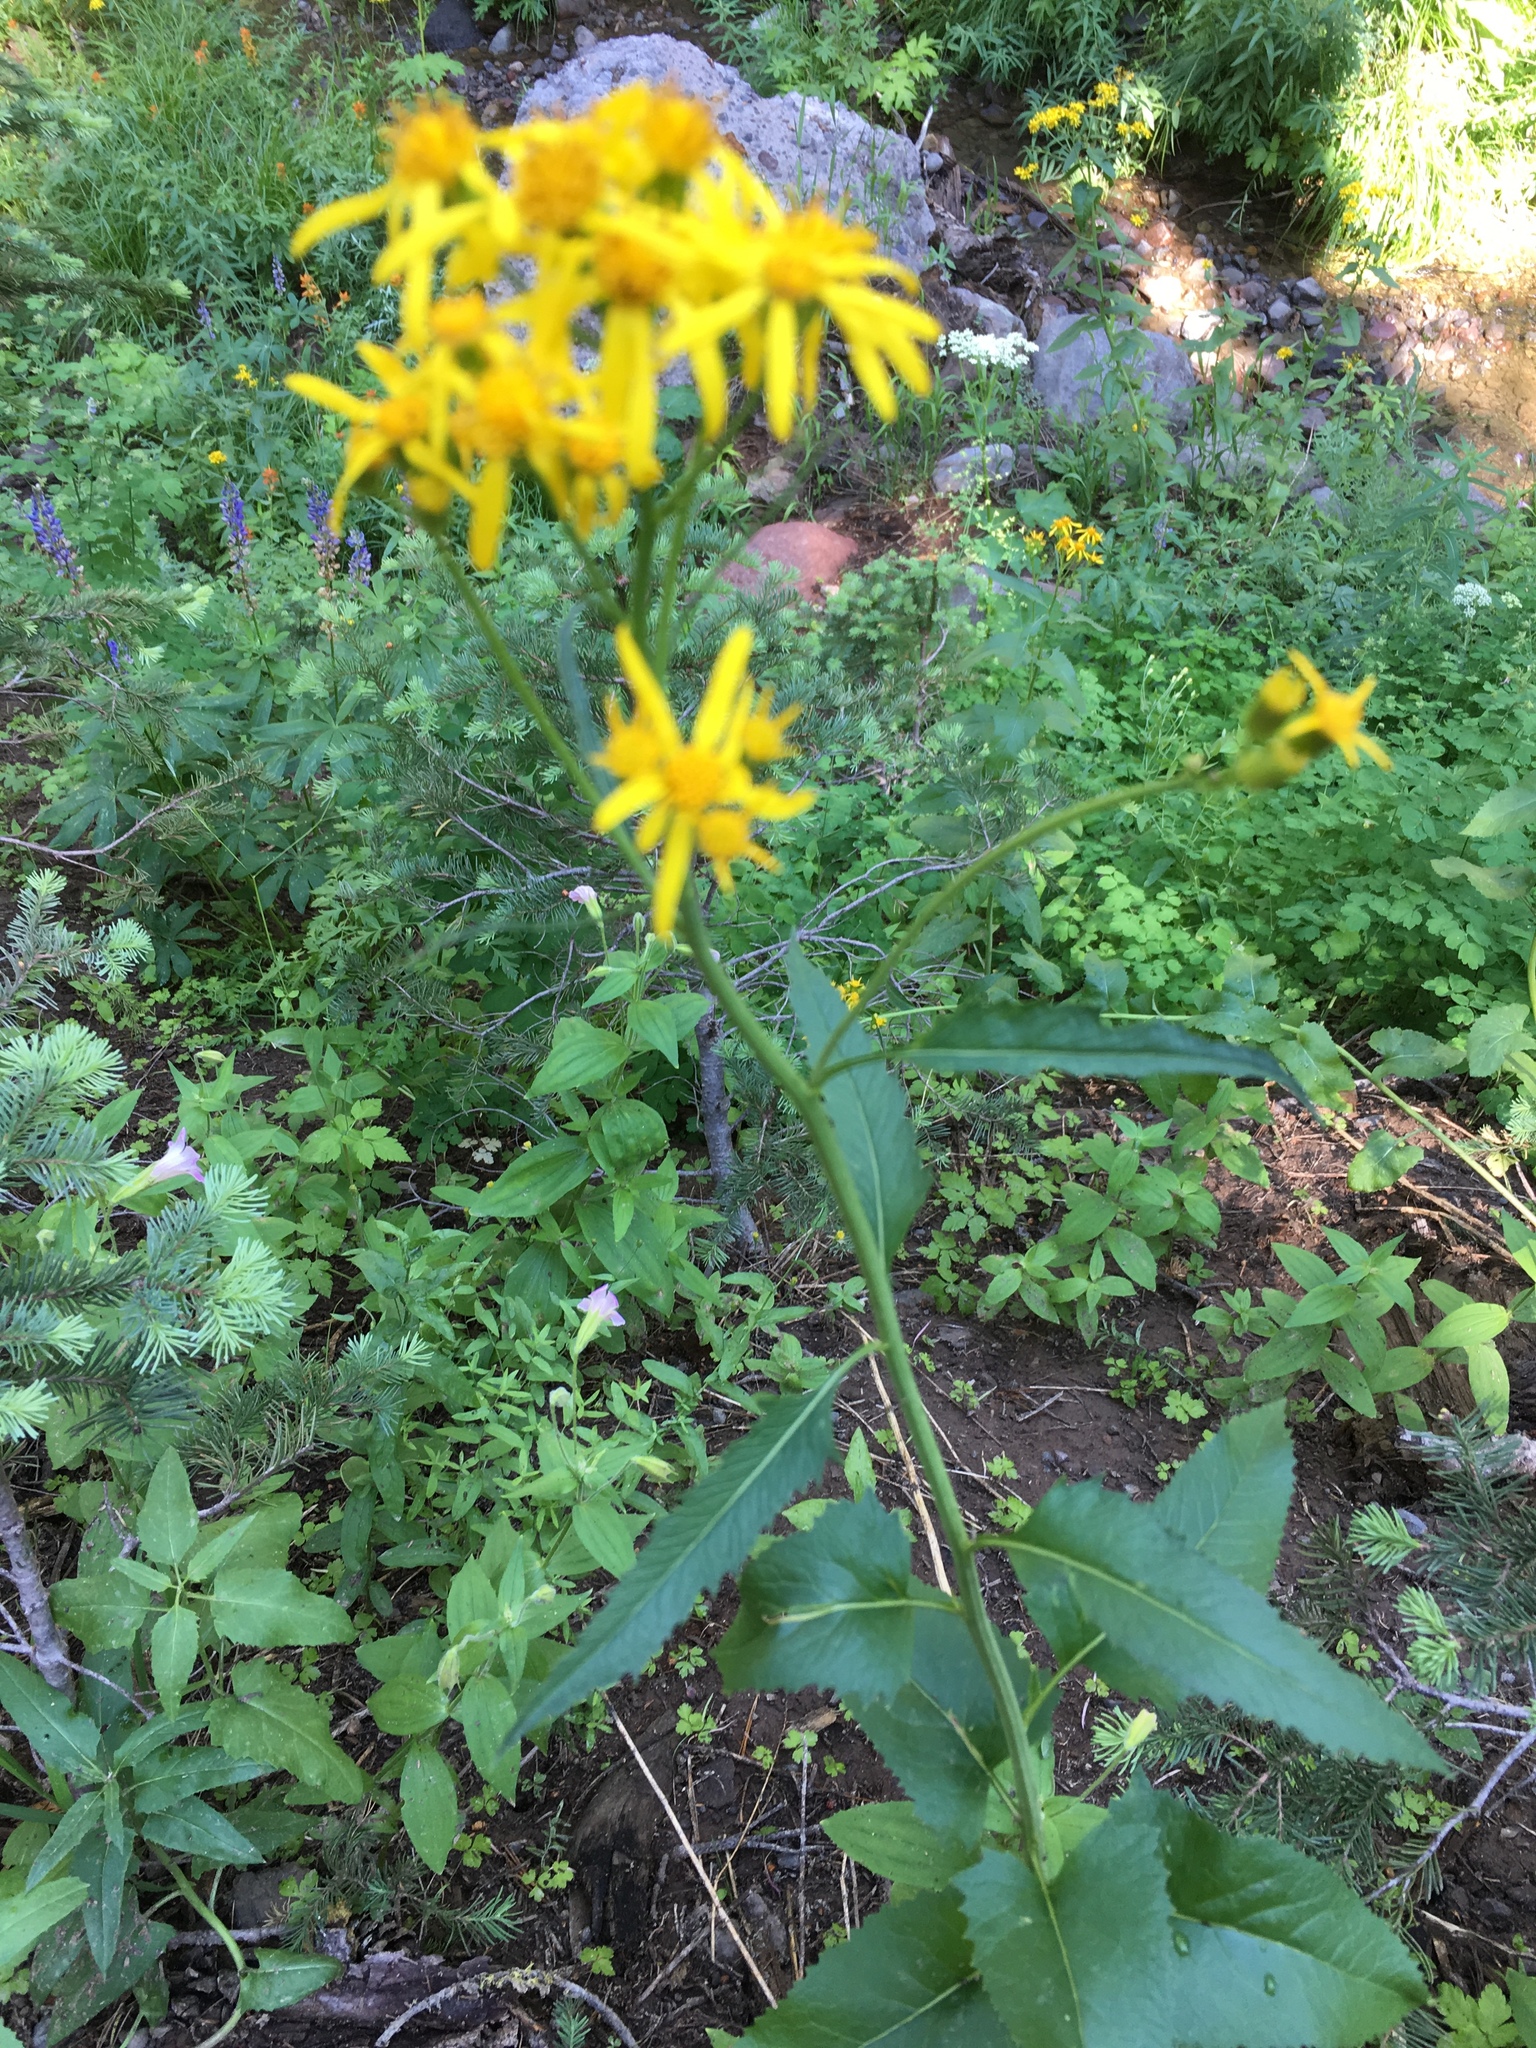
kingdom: Plantae
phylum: Tracheophyta
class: Magnoliopsida
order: Asterales
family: Asteraceae
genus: Senecio
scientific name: Senecio triangularis
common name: Arrowleaf butterweed
